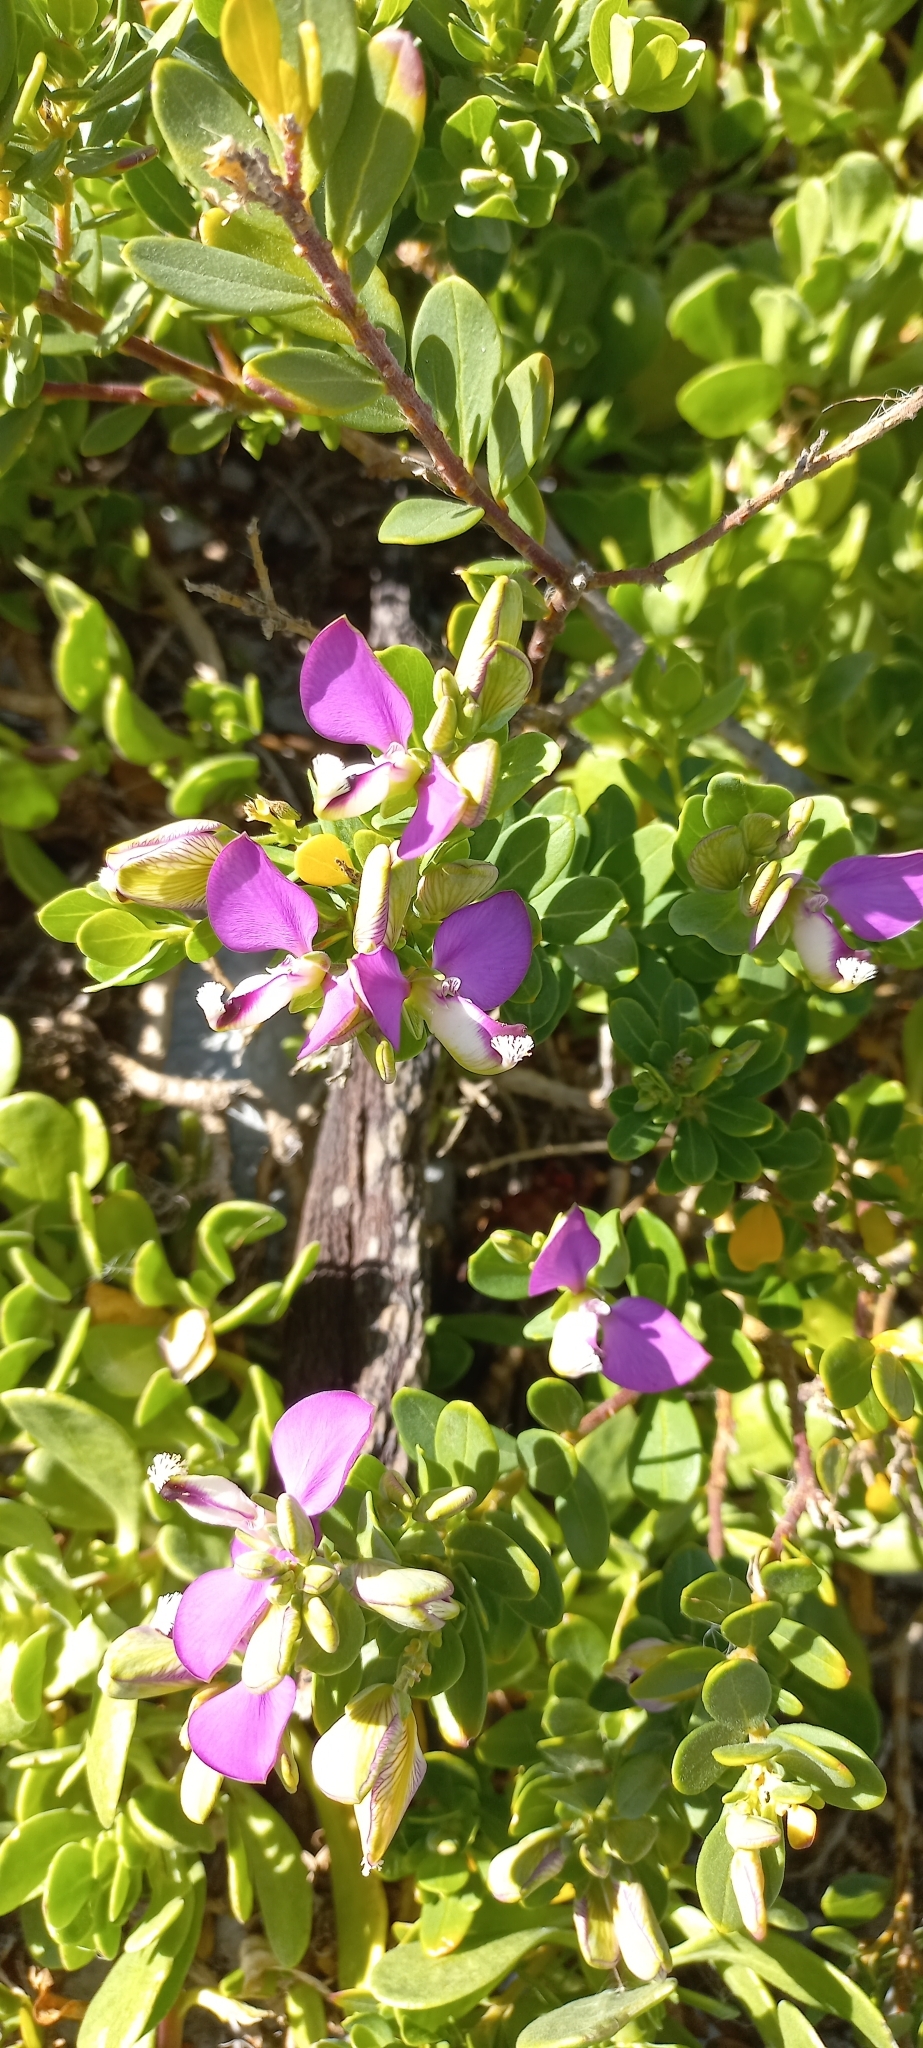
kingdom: Plantae
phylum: Tracheophyta
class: Magnoliopsida
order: Fabales
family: Polygalaceae
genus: Polygala
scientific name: Polygala myrtifolia
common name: Myrtle-leaf milkwort
